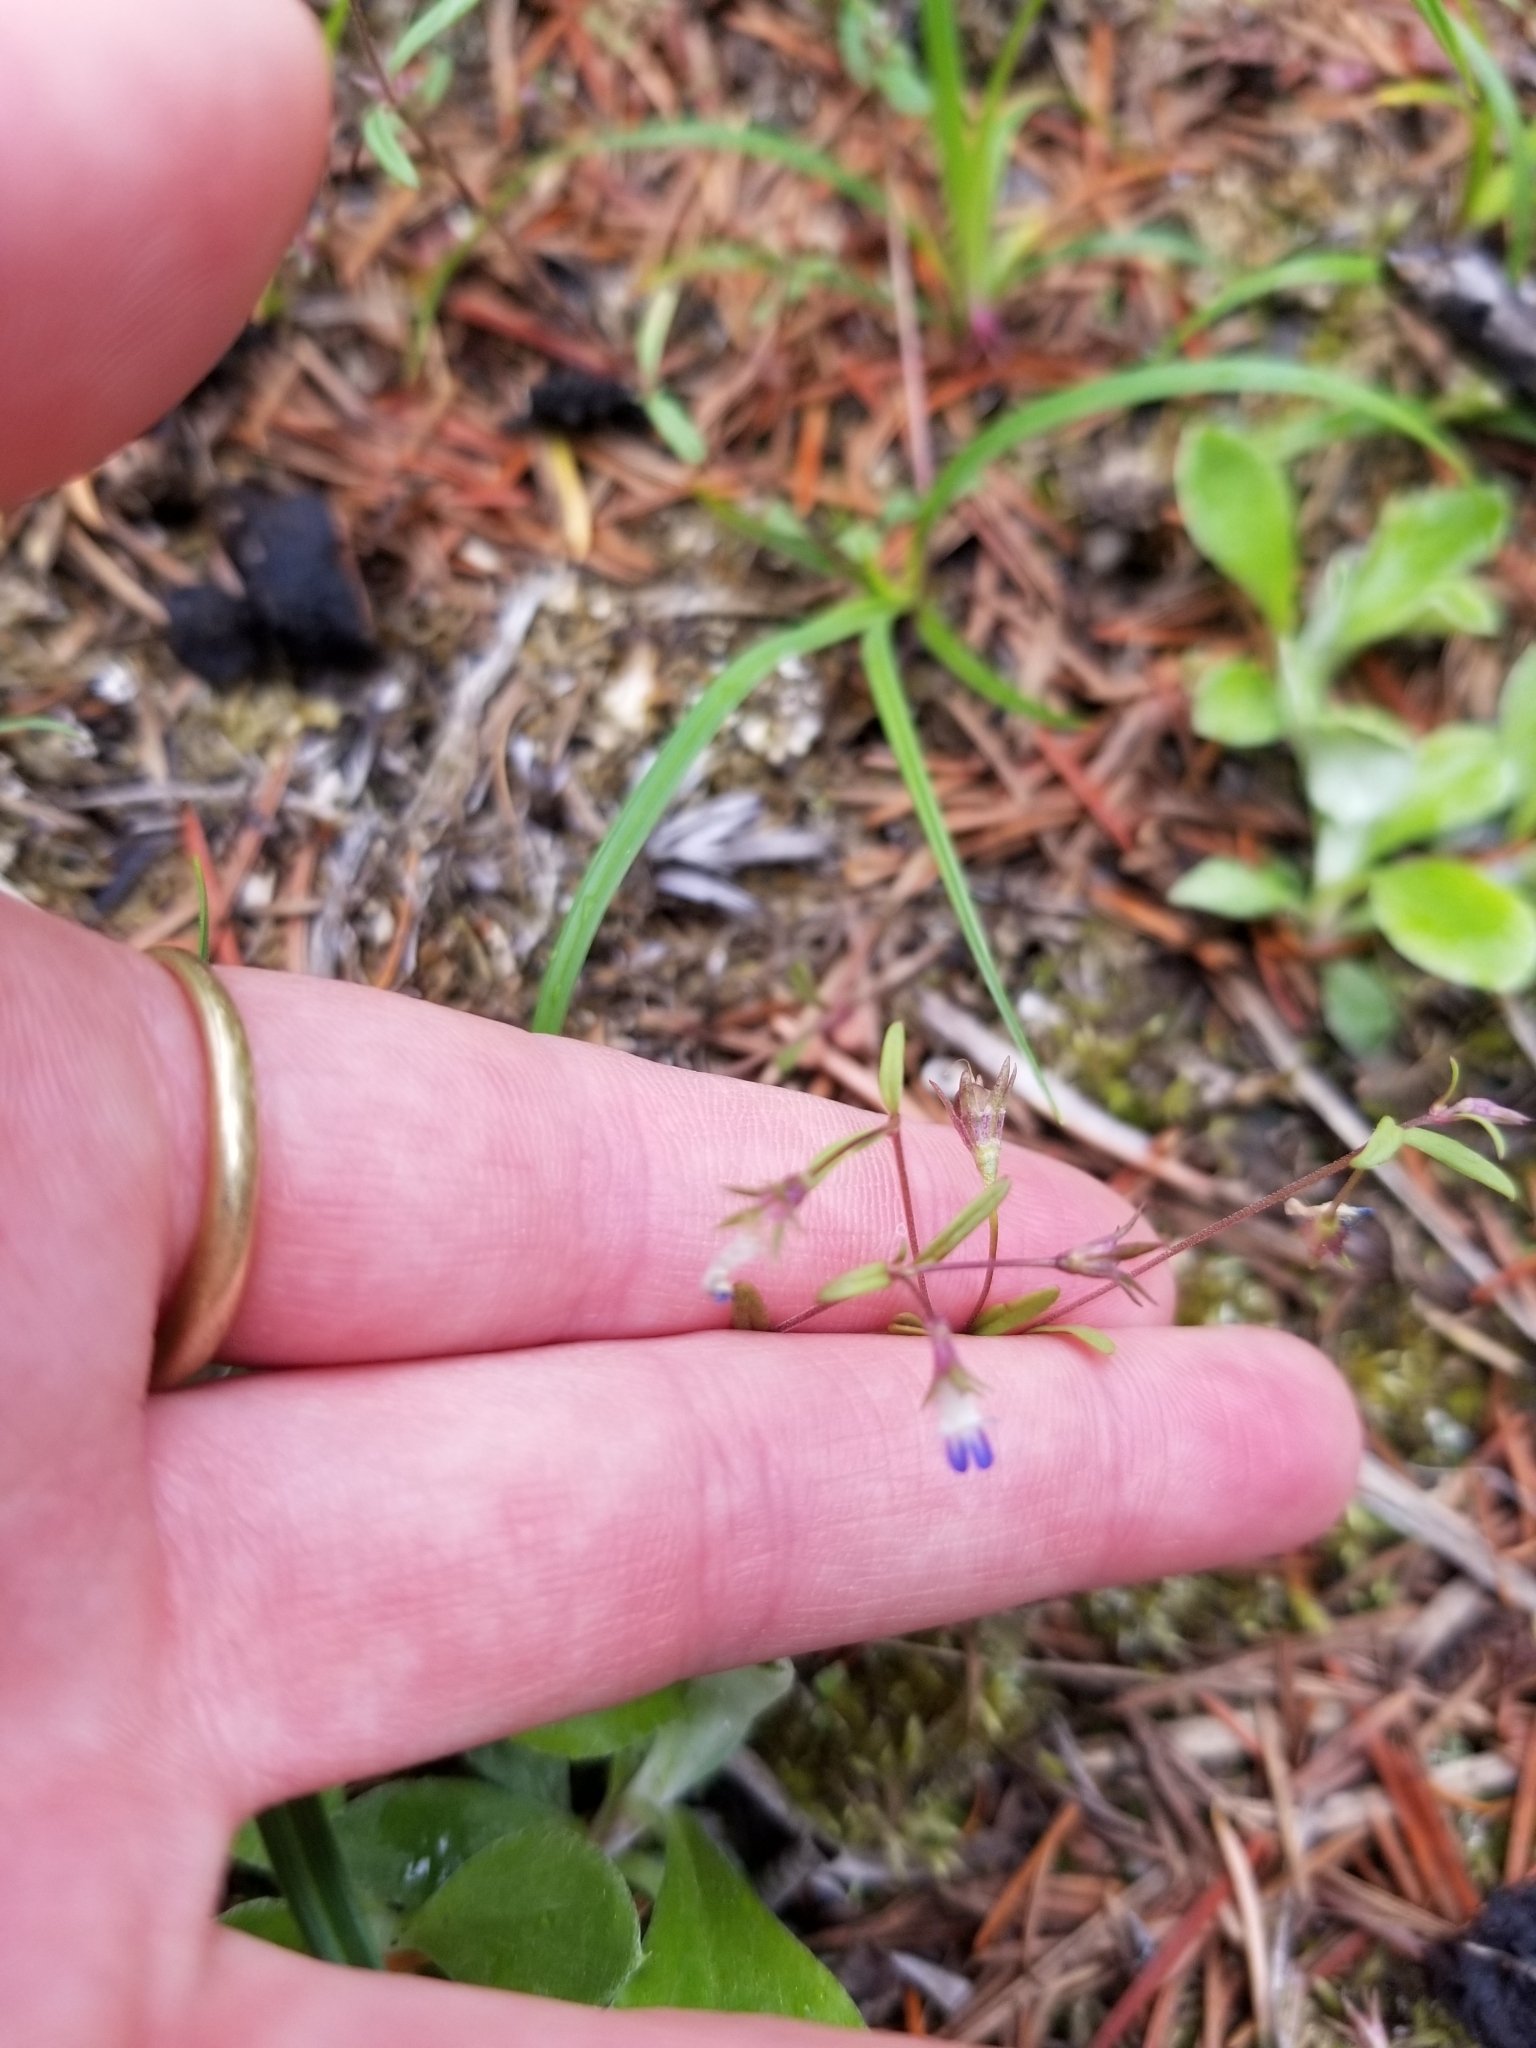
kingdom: Plantae
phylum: Tracheophyta
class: Magnoliopsida
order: Lamiales
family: Plantaginaceae
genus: Collinsia
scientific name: Collinsia parviflora
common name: Blue-lips
